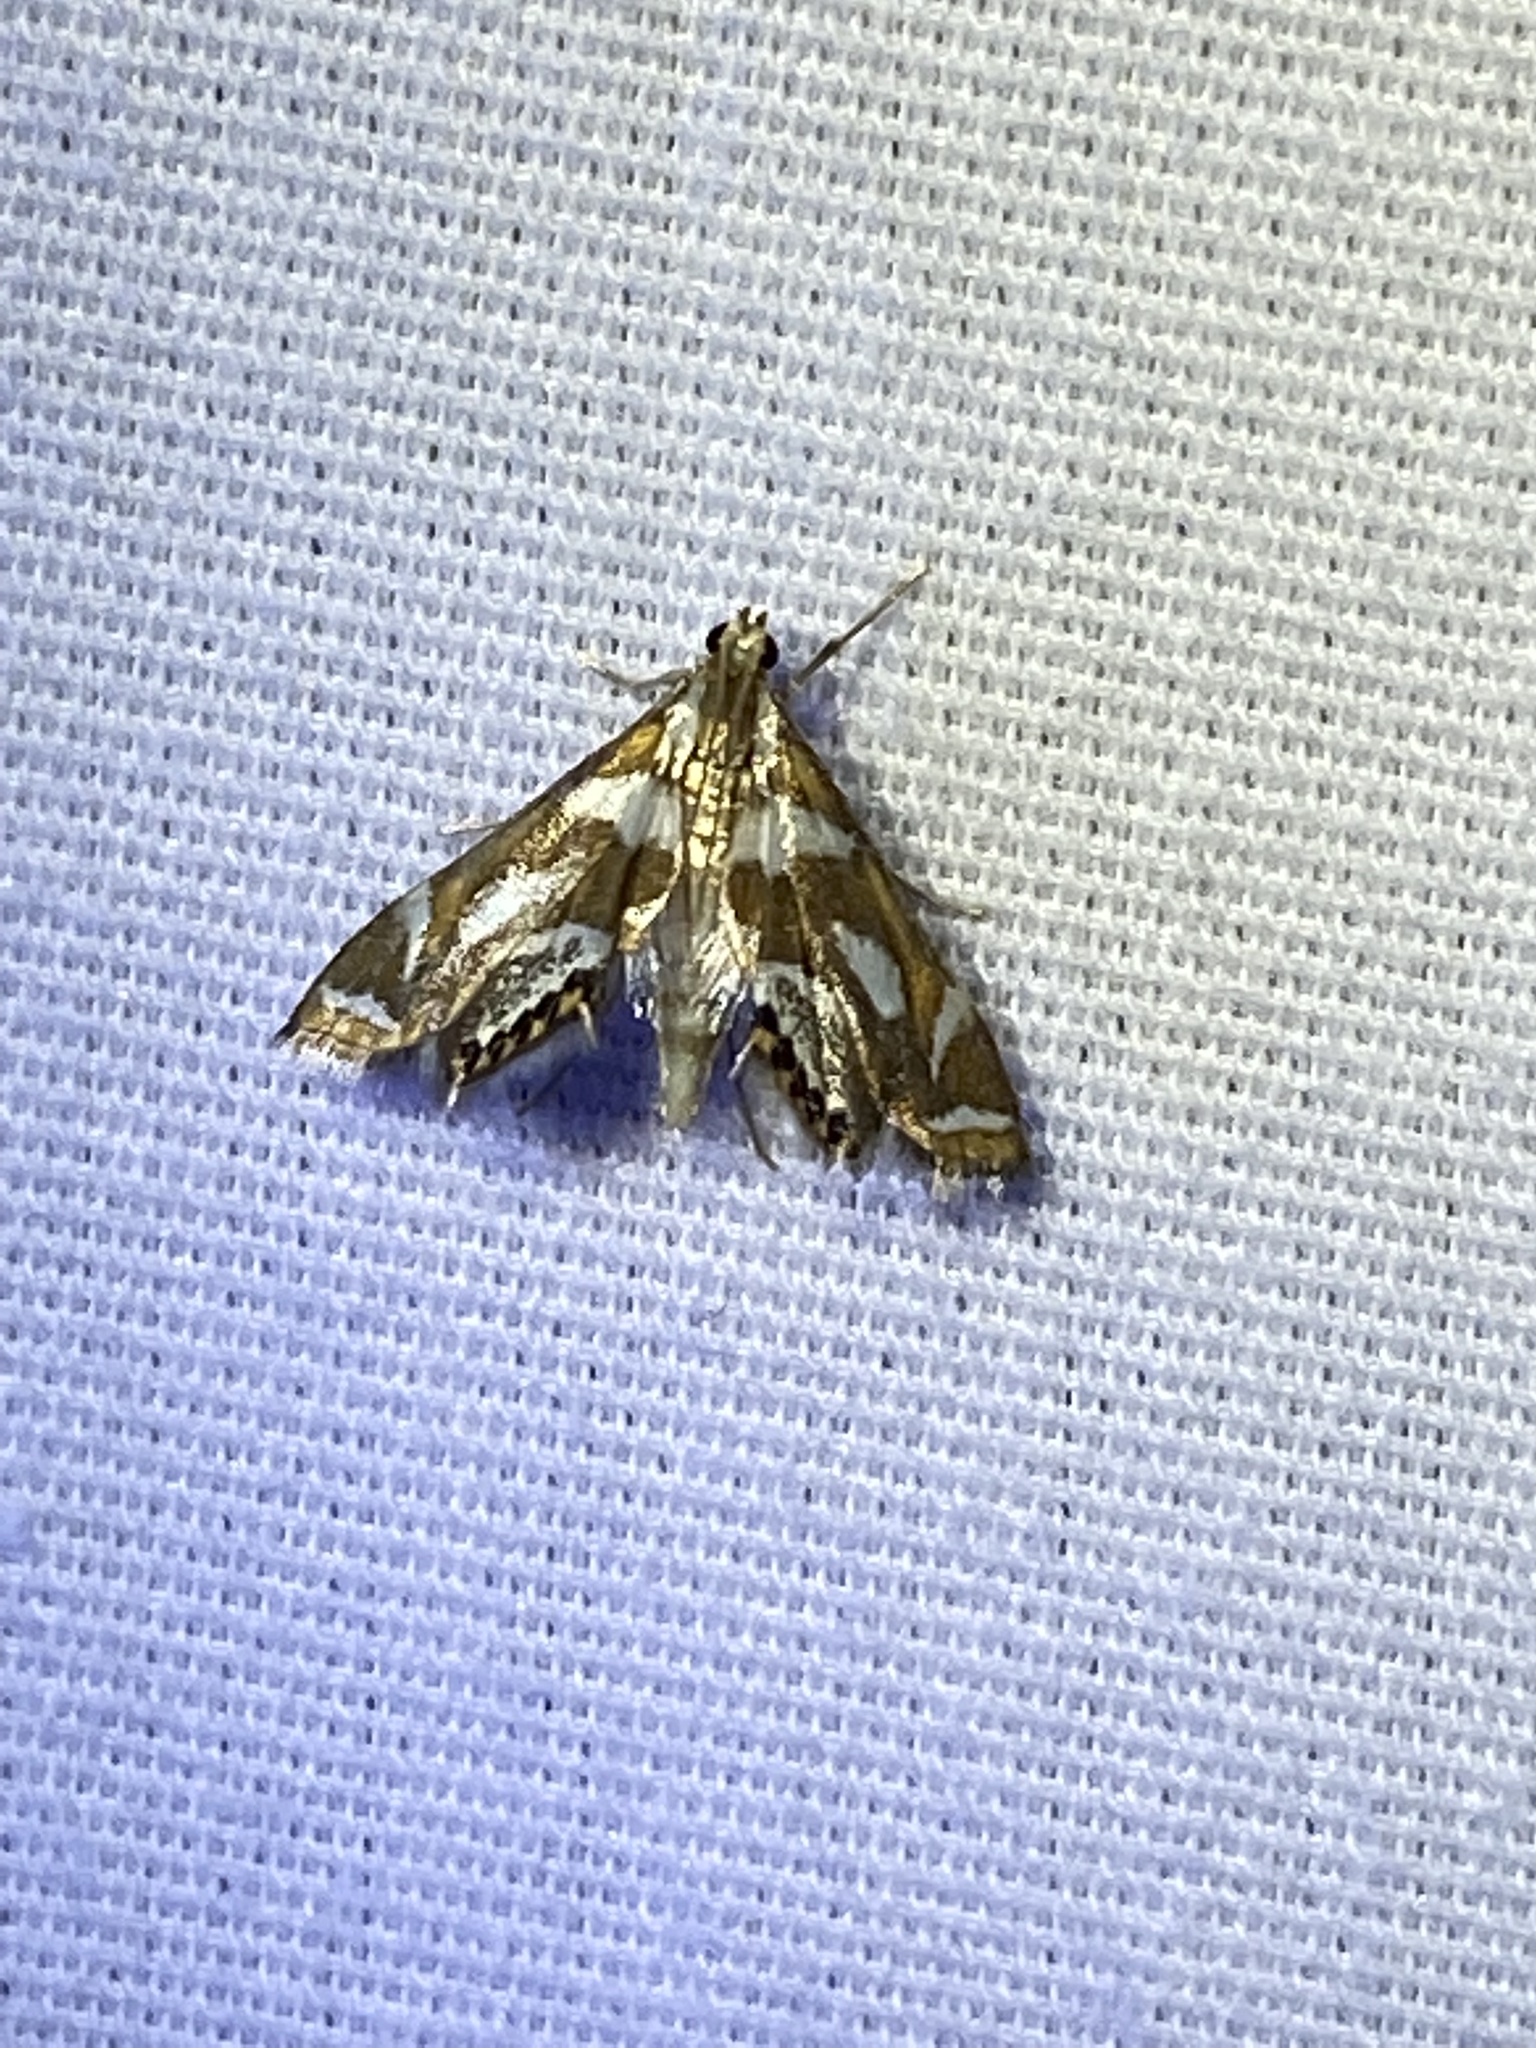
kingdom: Animalia
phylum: Arthropoda
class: Insecta
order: Lepidoptera
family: Crambidae
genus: Chrysendeton
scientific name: Chrysendeton medicinalis
